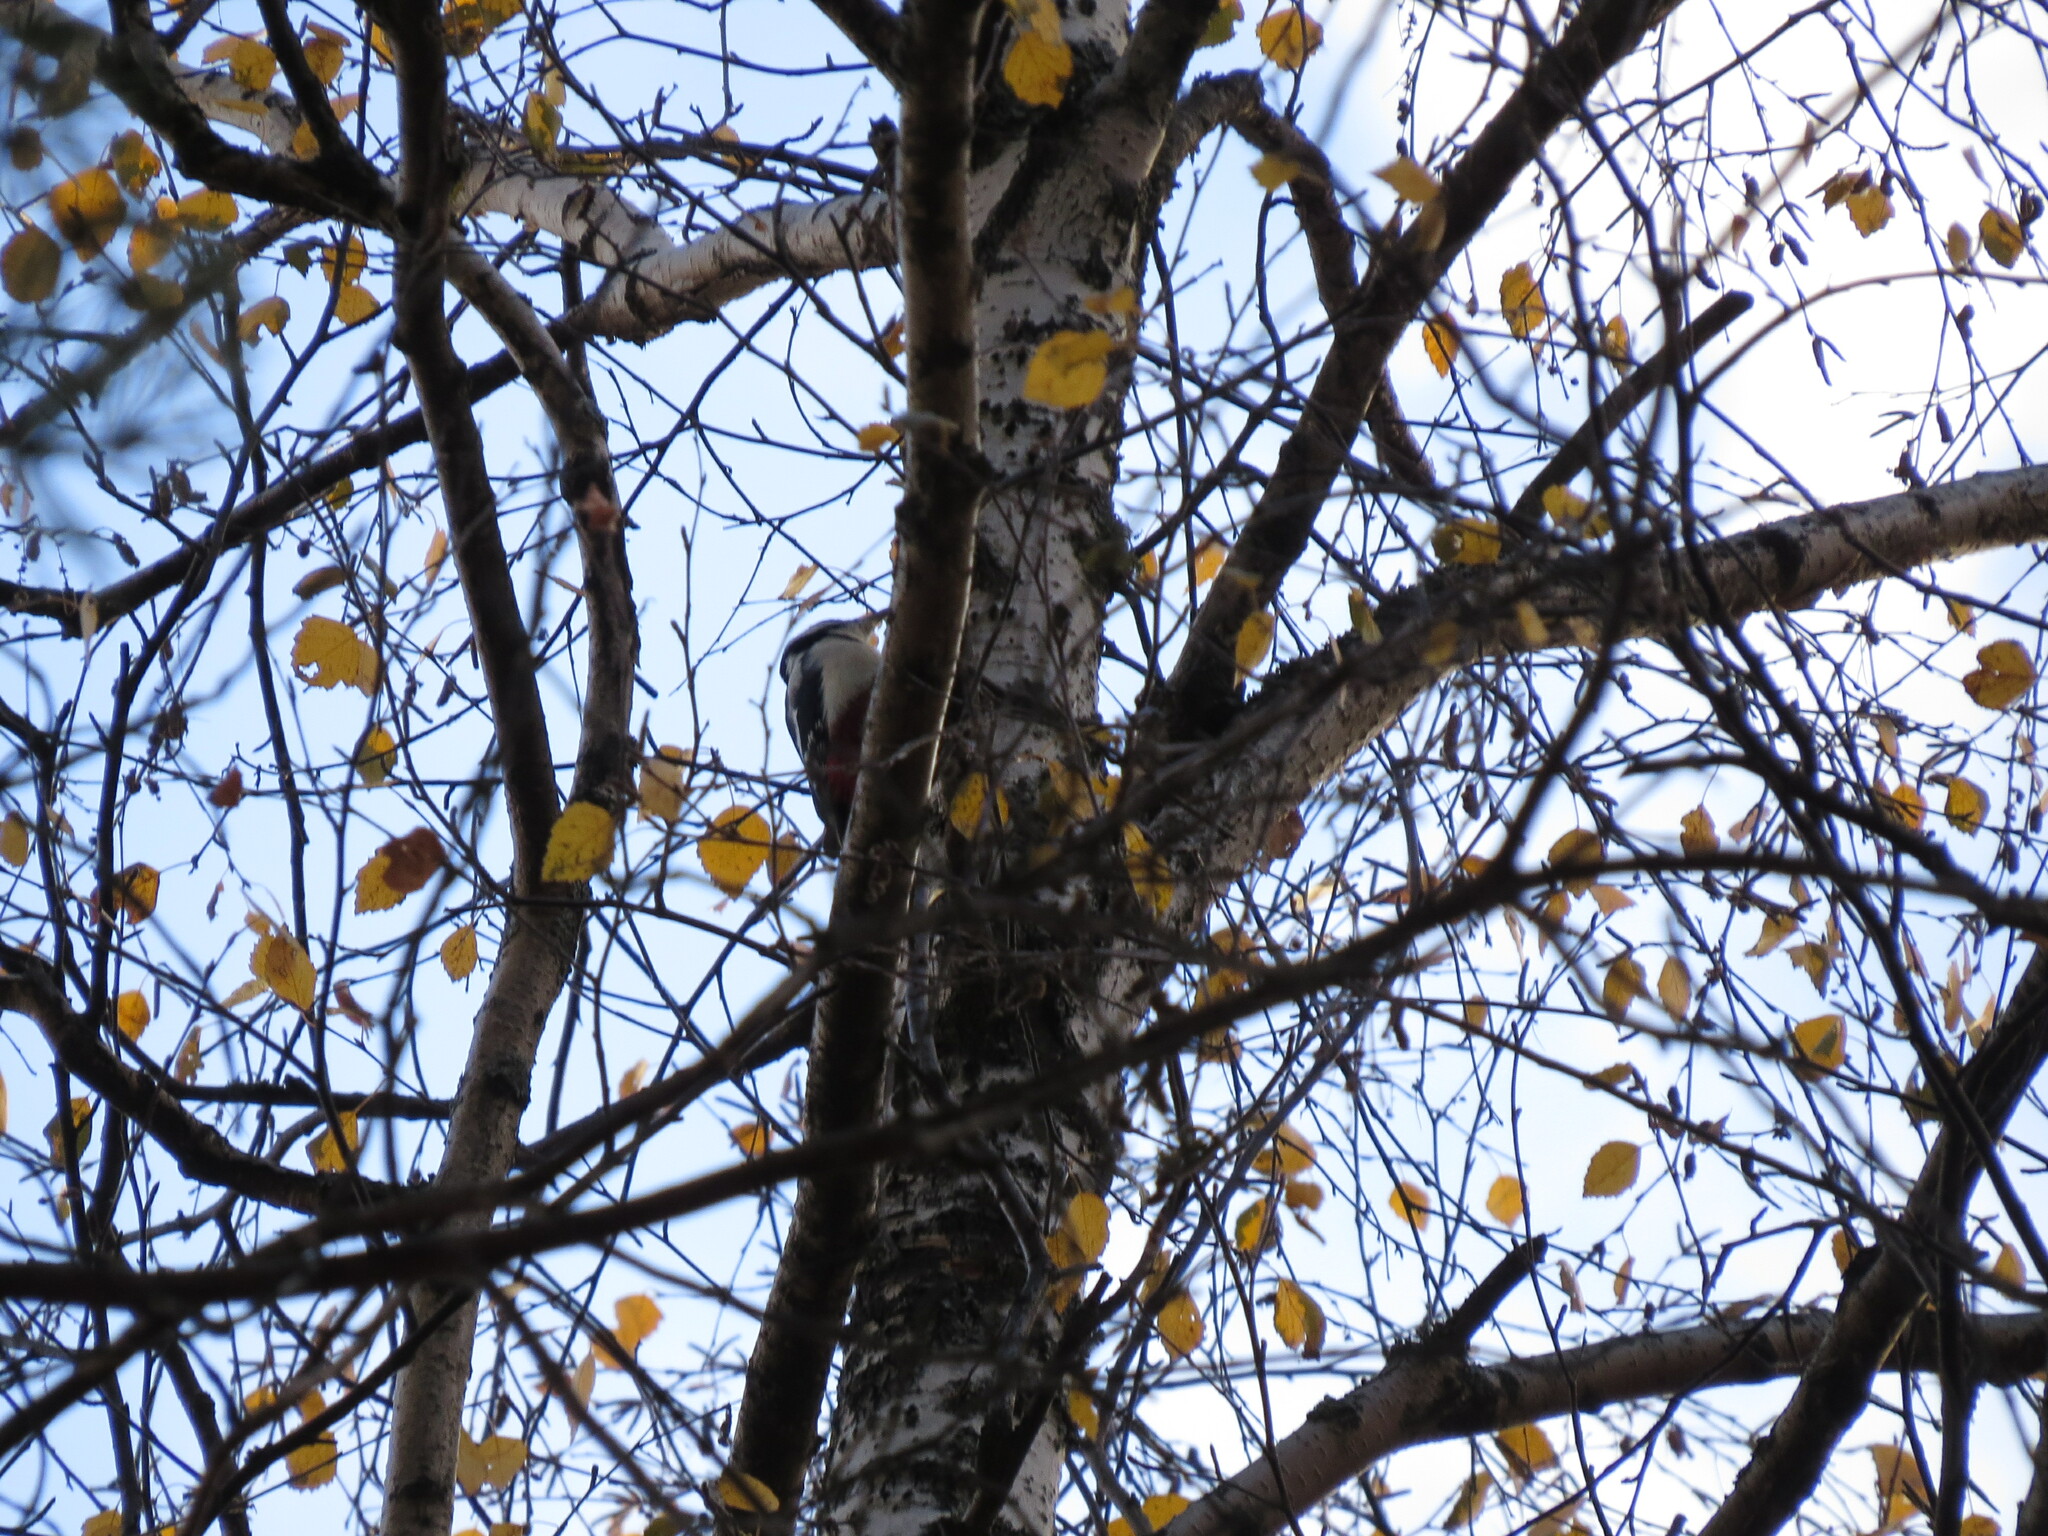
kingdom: Animalia
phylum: Chordata
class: Aves
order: Piciformes
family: Picidae
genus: Dendrocopos
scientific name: Dendrocopos major
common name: Great spotted woodpecker
